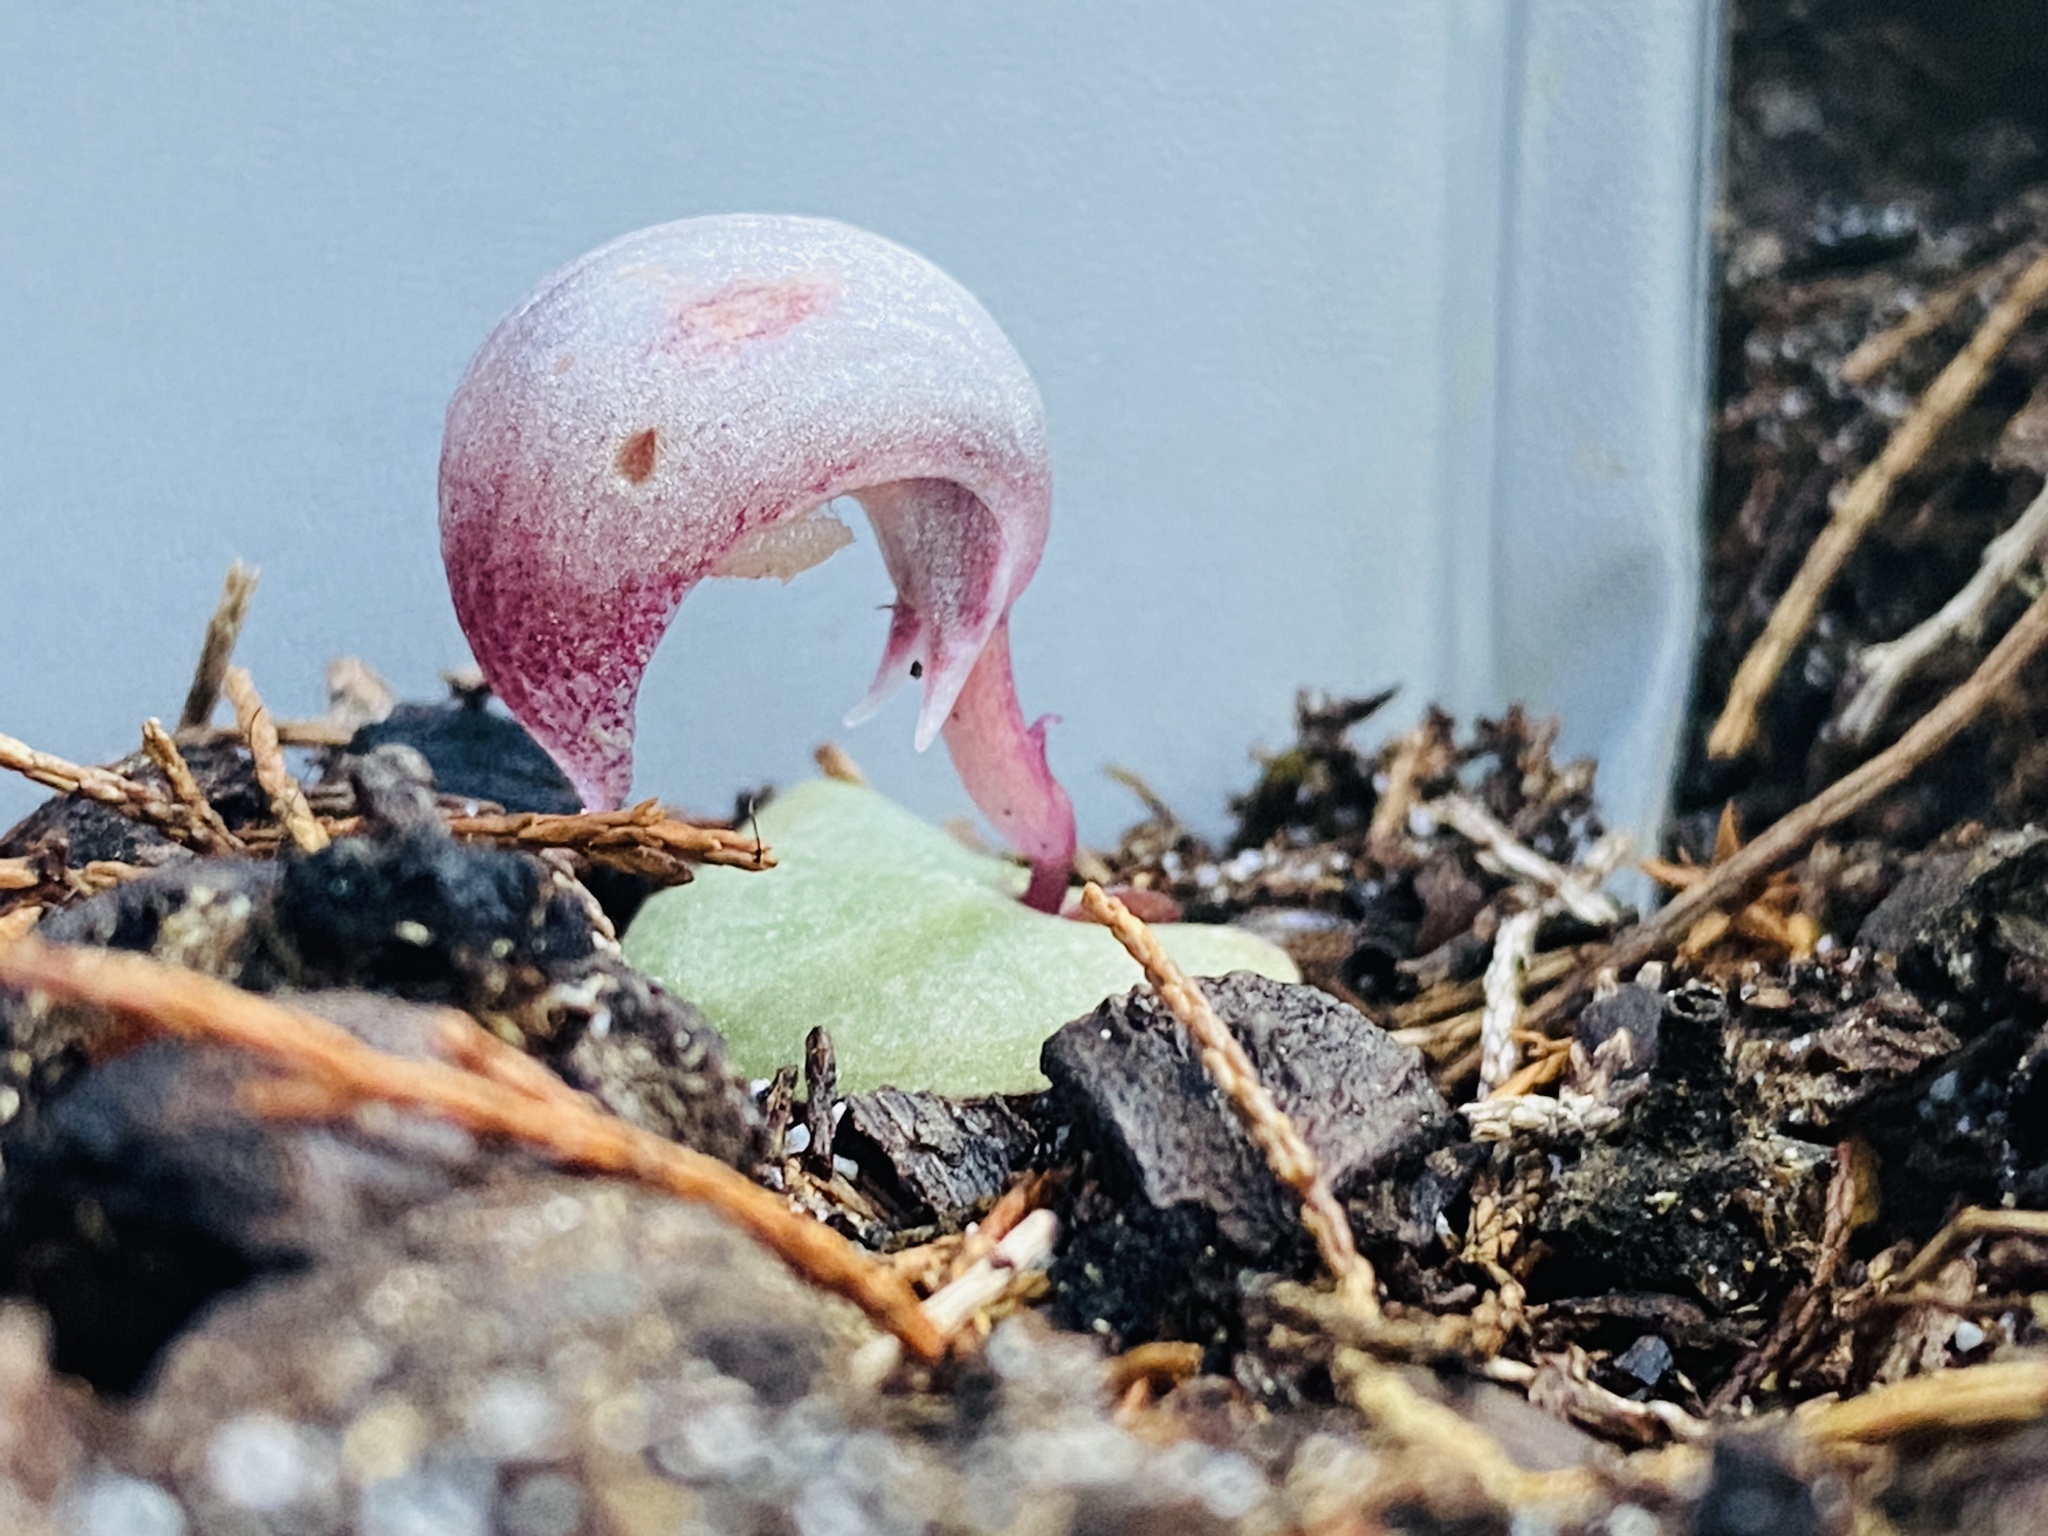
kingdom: Plantae
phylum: Tracheophyta
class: Liliopsida
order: Asparagales
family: Orchidaceae
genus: Corybas
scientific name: Corybas barbarae
